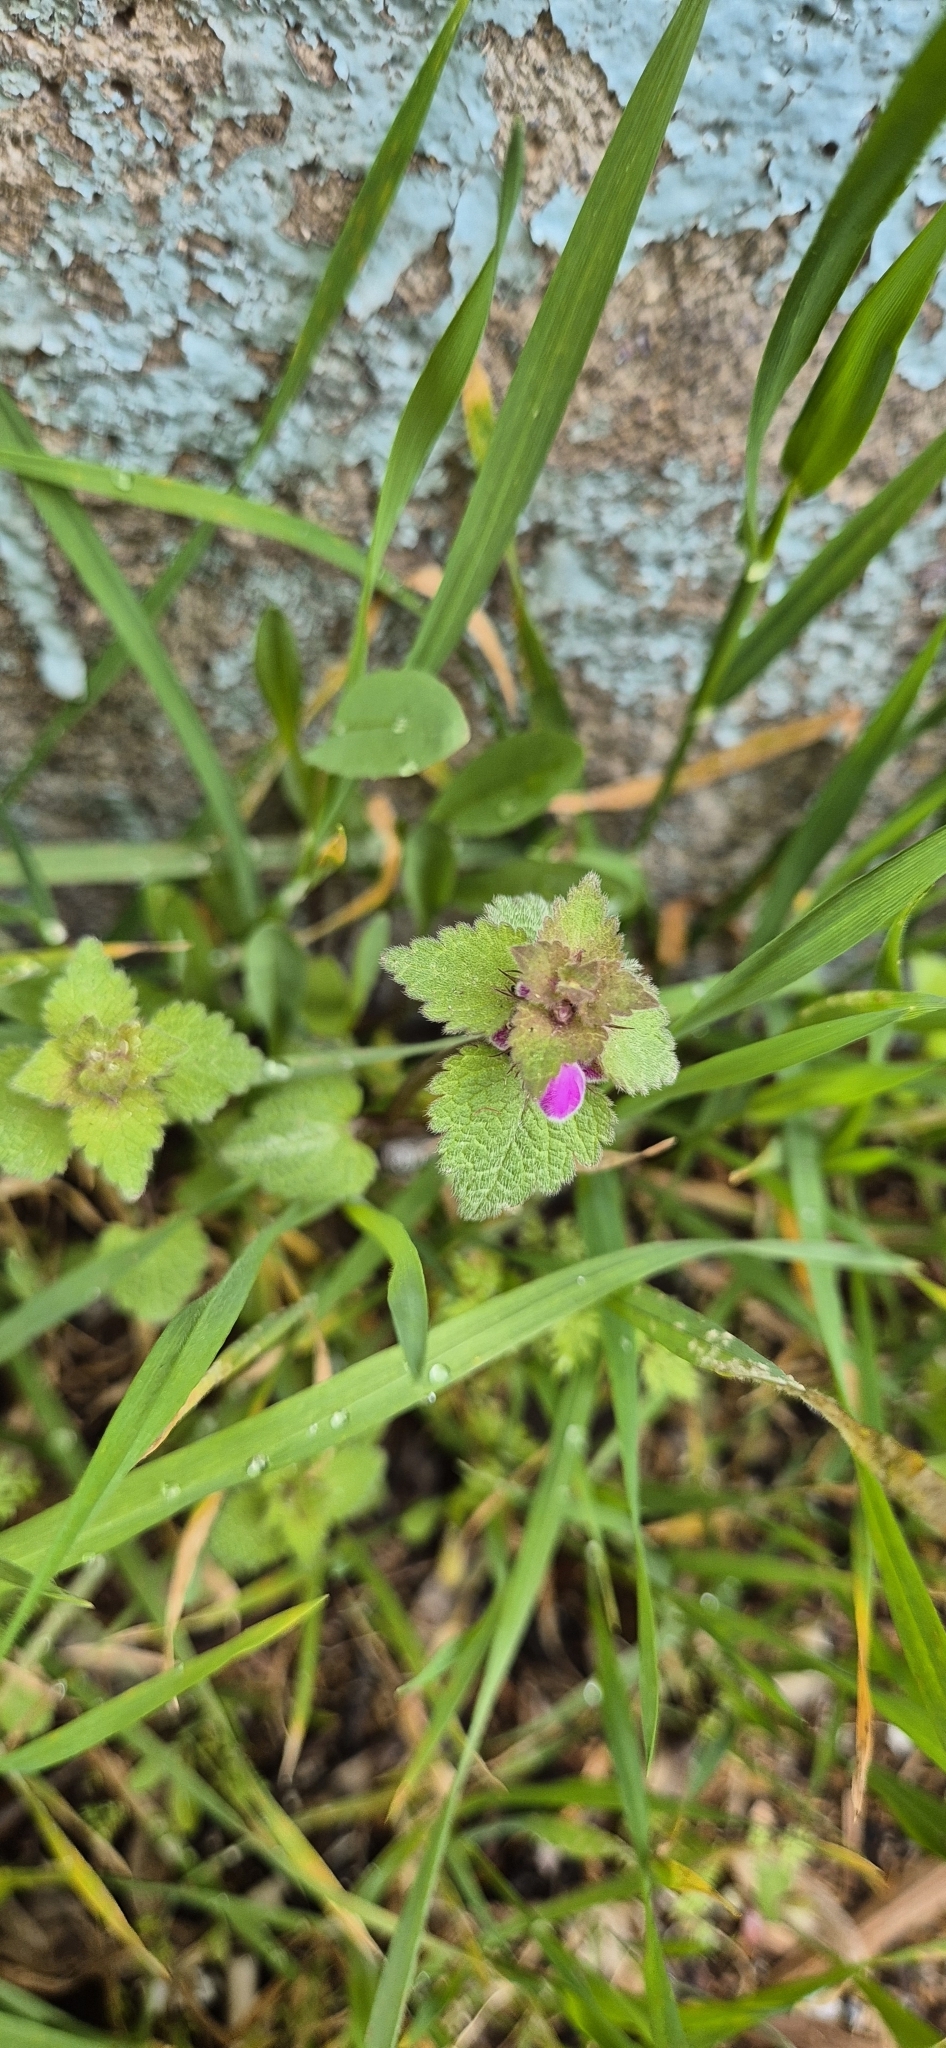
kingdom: Plantae
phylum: Tracheophyta
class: Magnoliopsida
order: Lamiales
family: Lamiaceae
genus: Lamium
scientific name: Lamium purpureum
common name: Red dead-nettle
